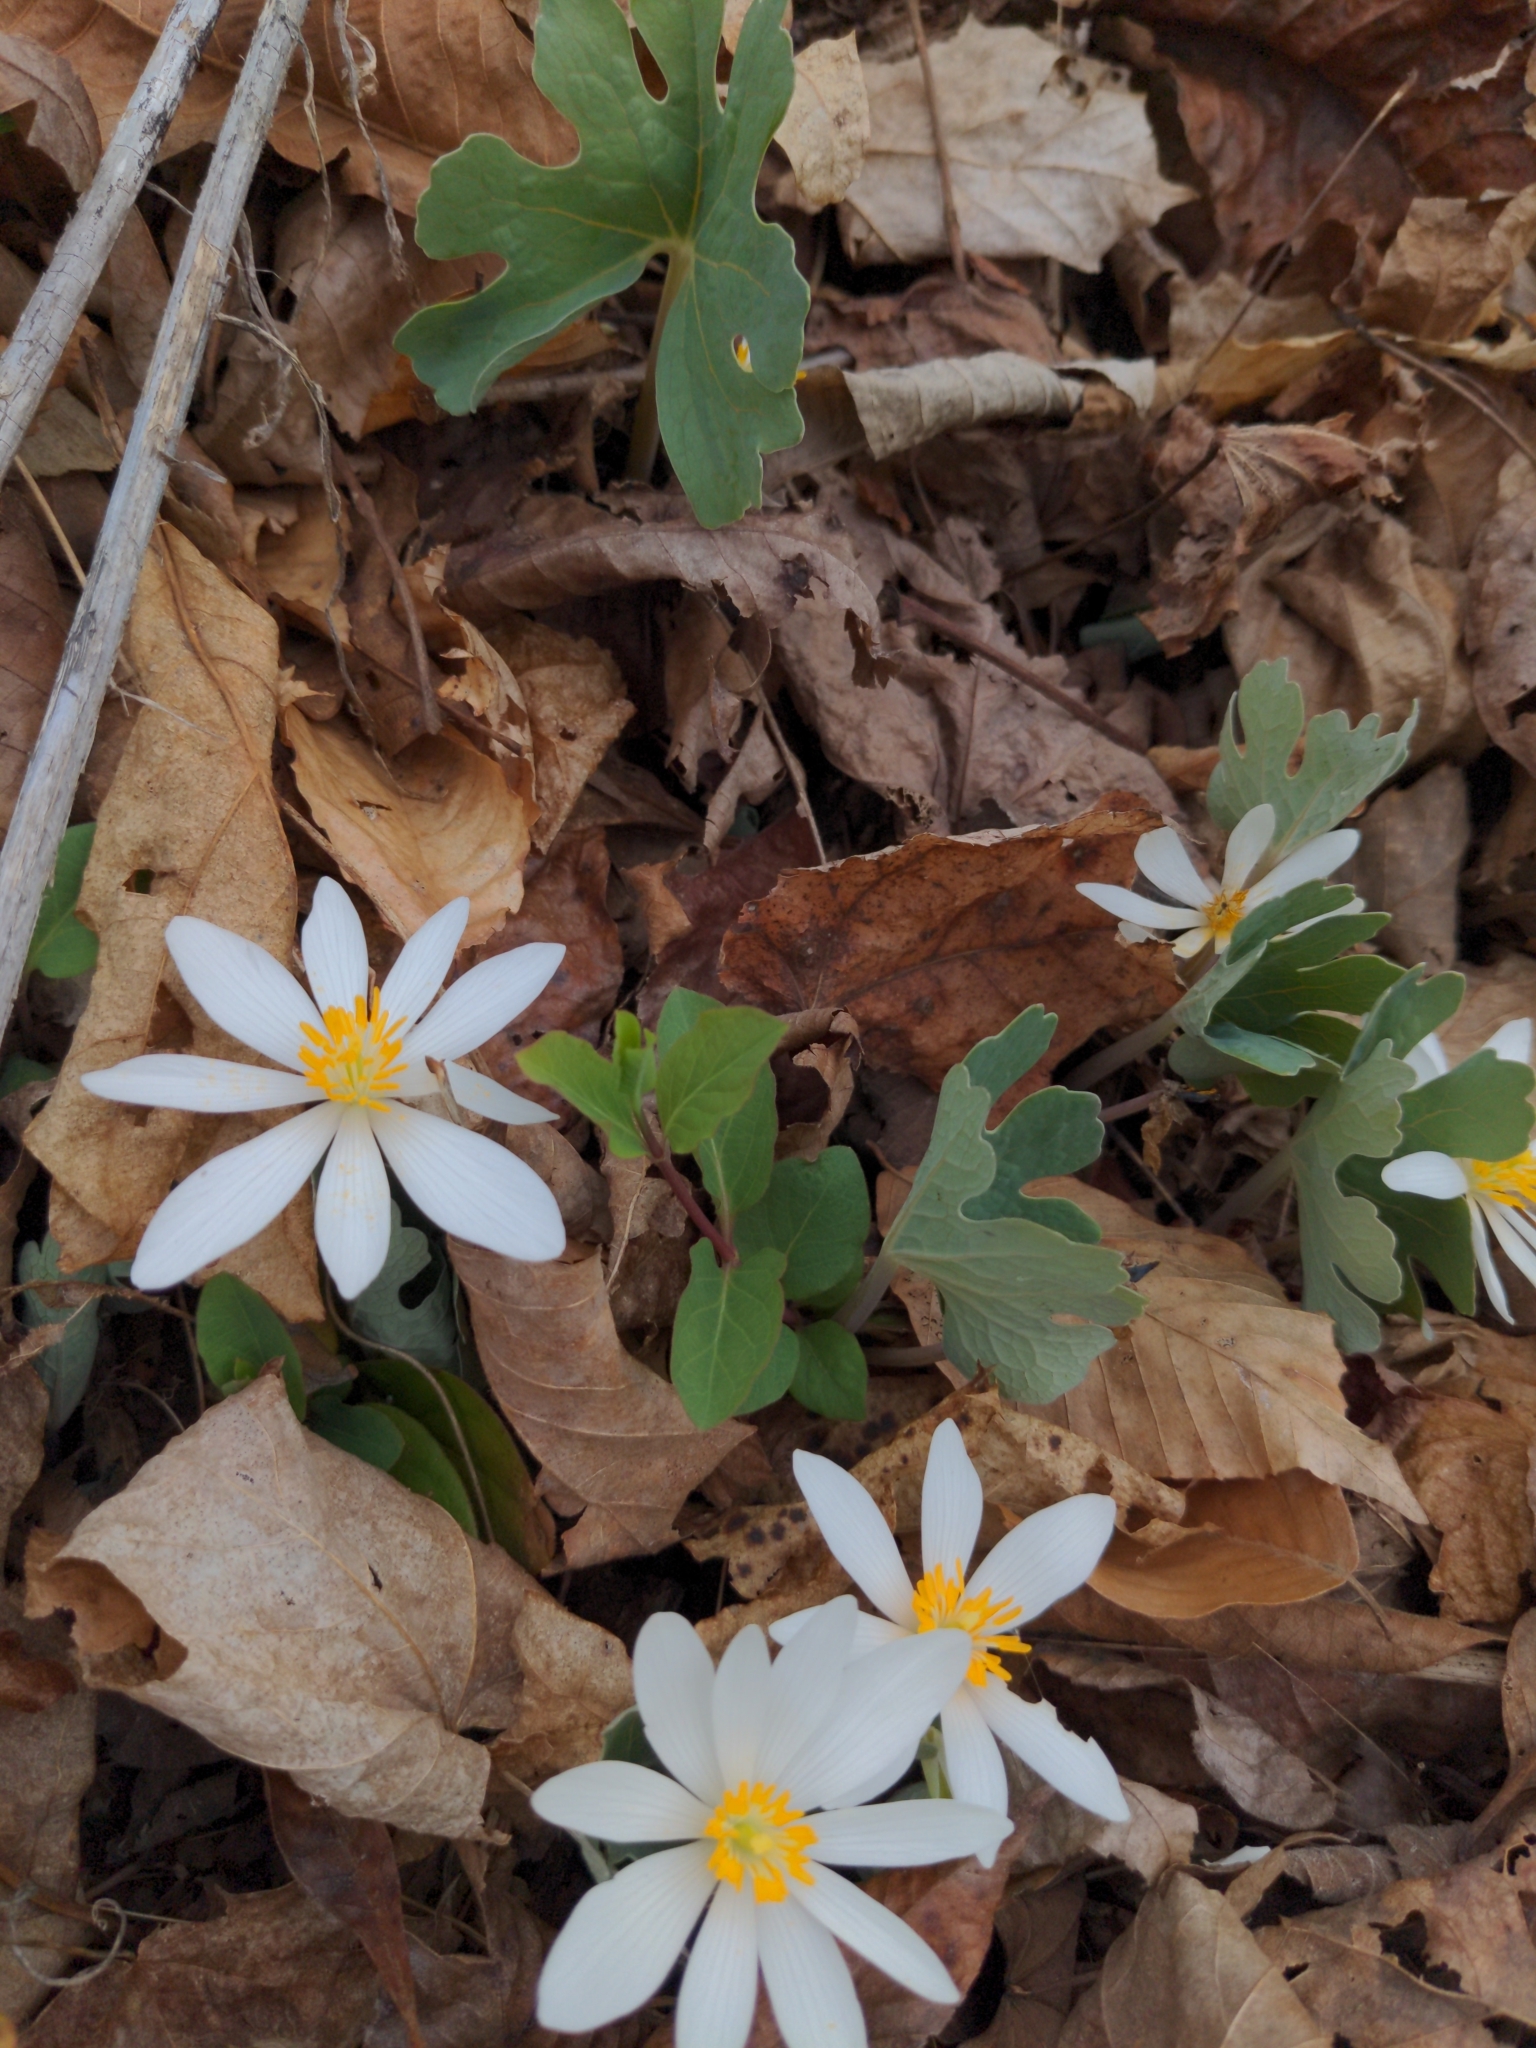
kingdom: Plantae
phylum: Tracheophyta
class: Magnoliopsida
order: Ranunculales
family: Papaveraceae
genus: Sanguinaria
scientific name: Sanguinaria canadensis
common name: Bloodroot
